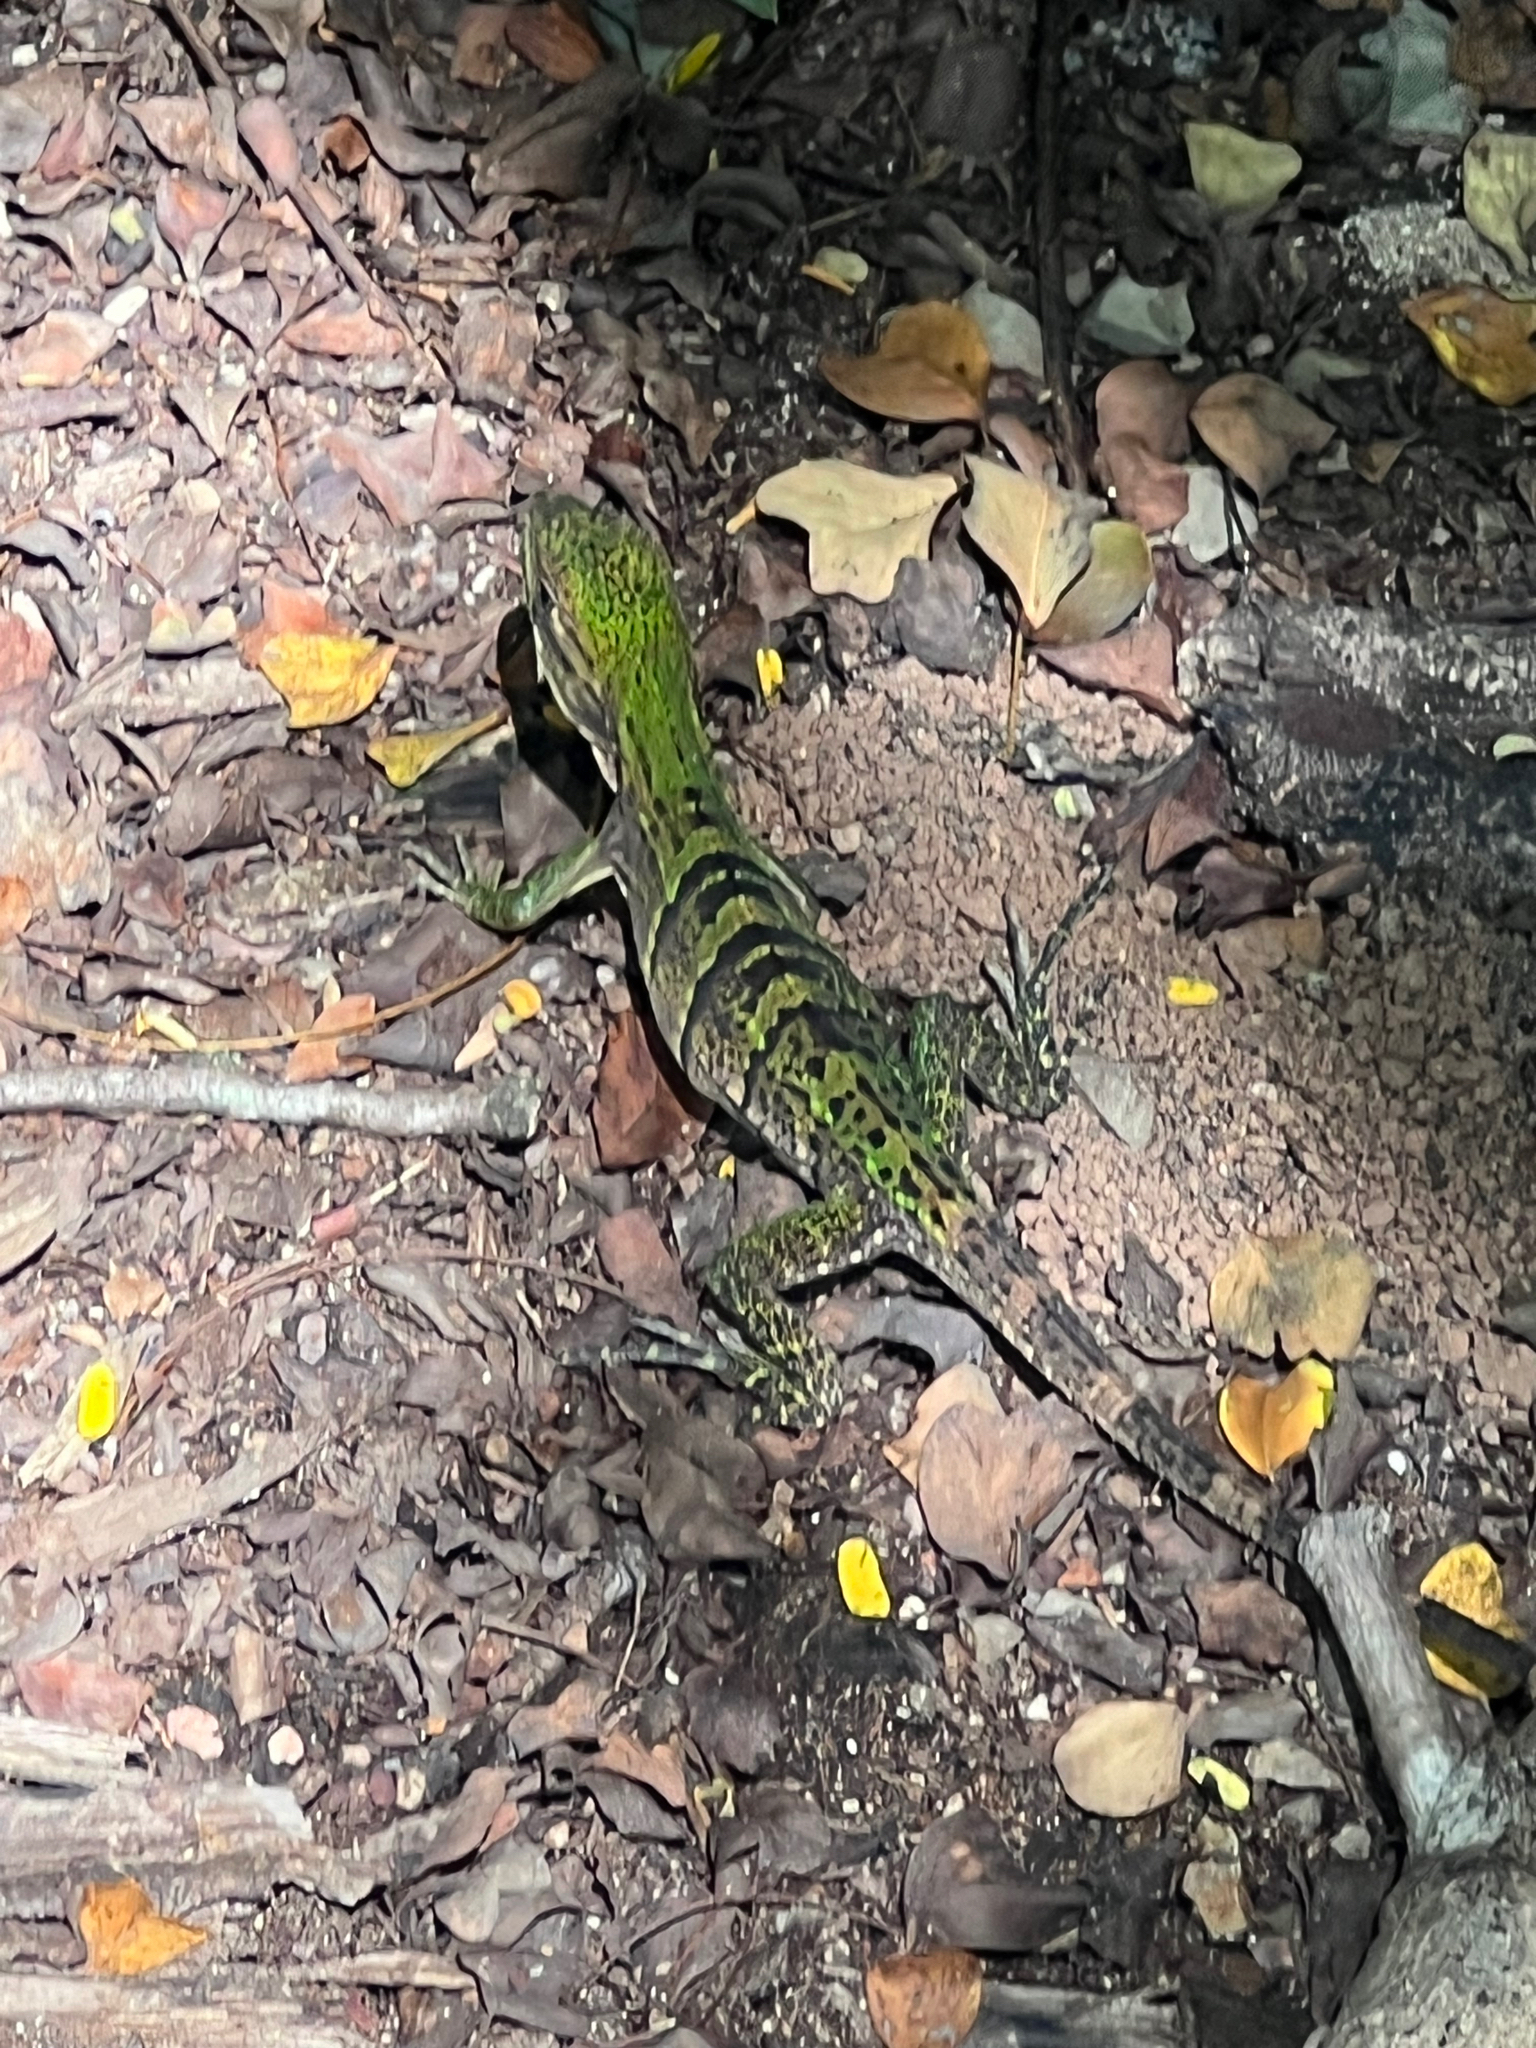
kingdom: Animalia
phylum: Chordata
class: Squamata
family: Iguanidae
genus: Ctenosaura
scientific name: Ctenosaura similis
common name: Black spiny-tailed iguana
